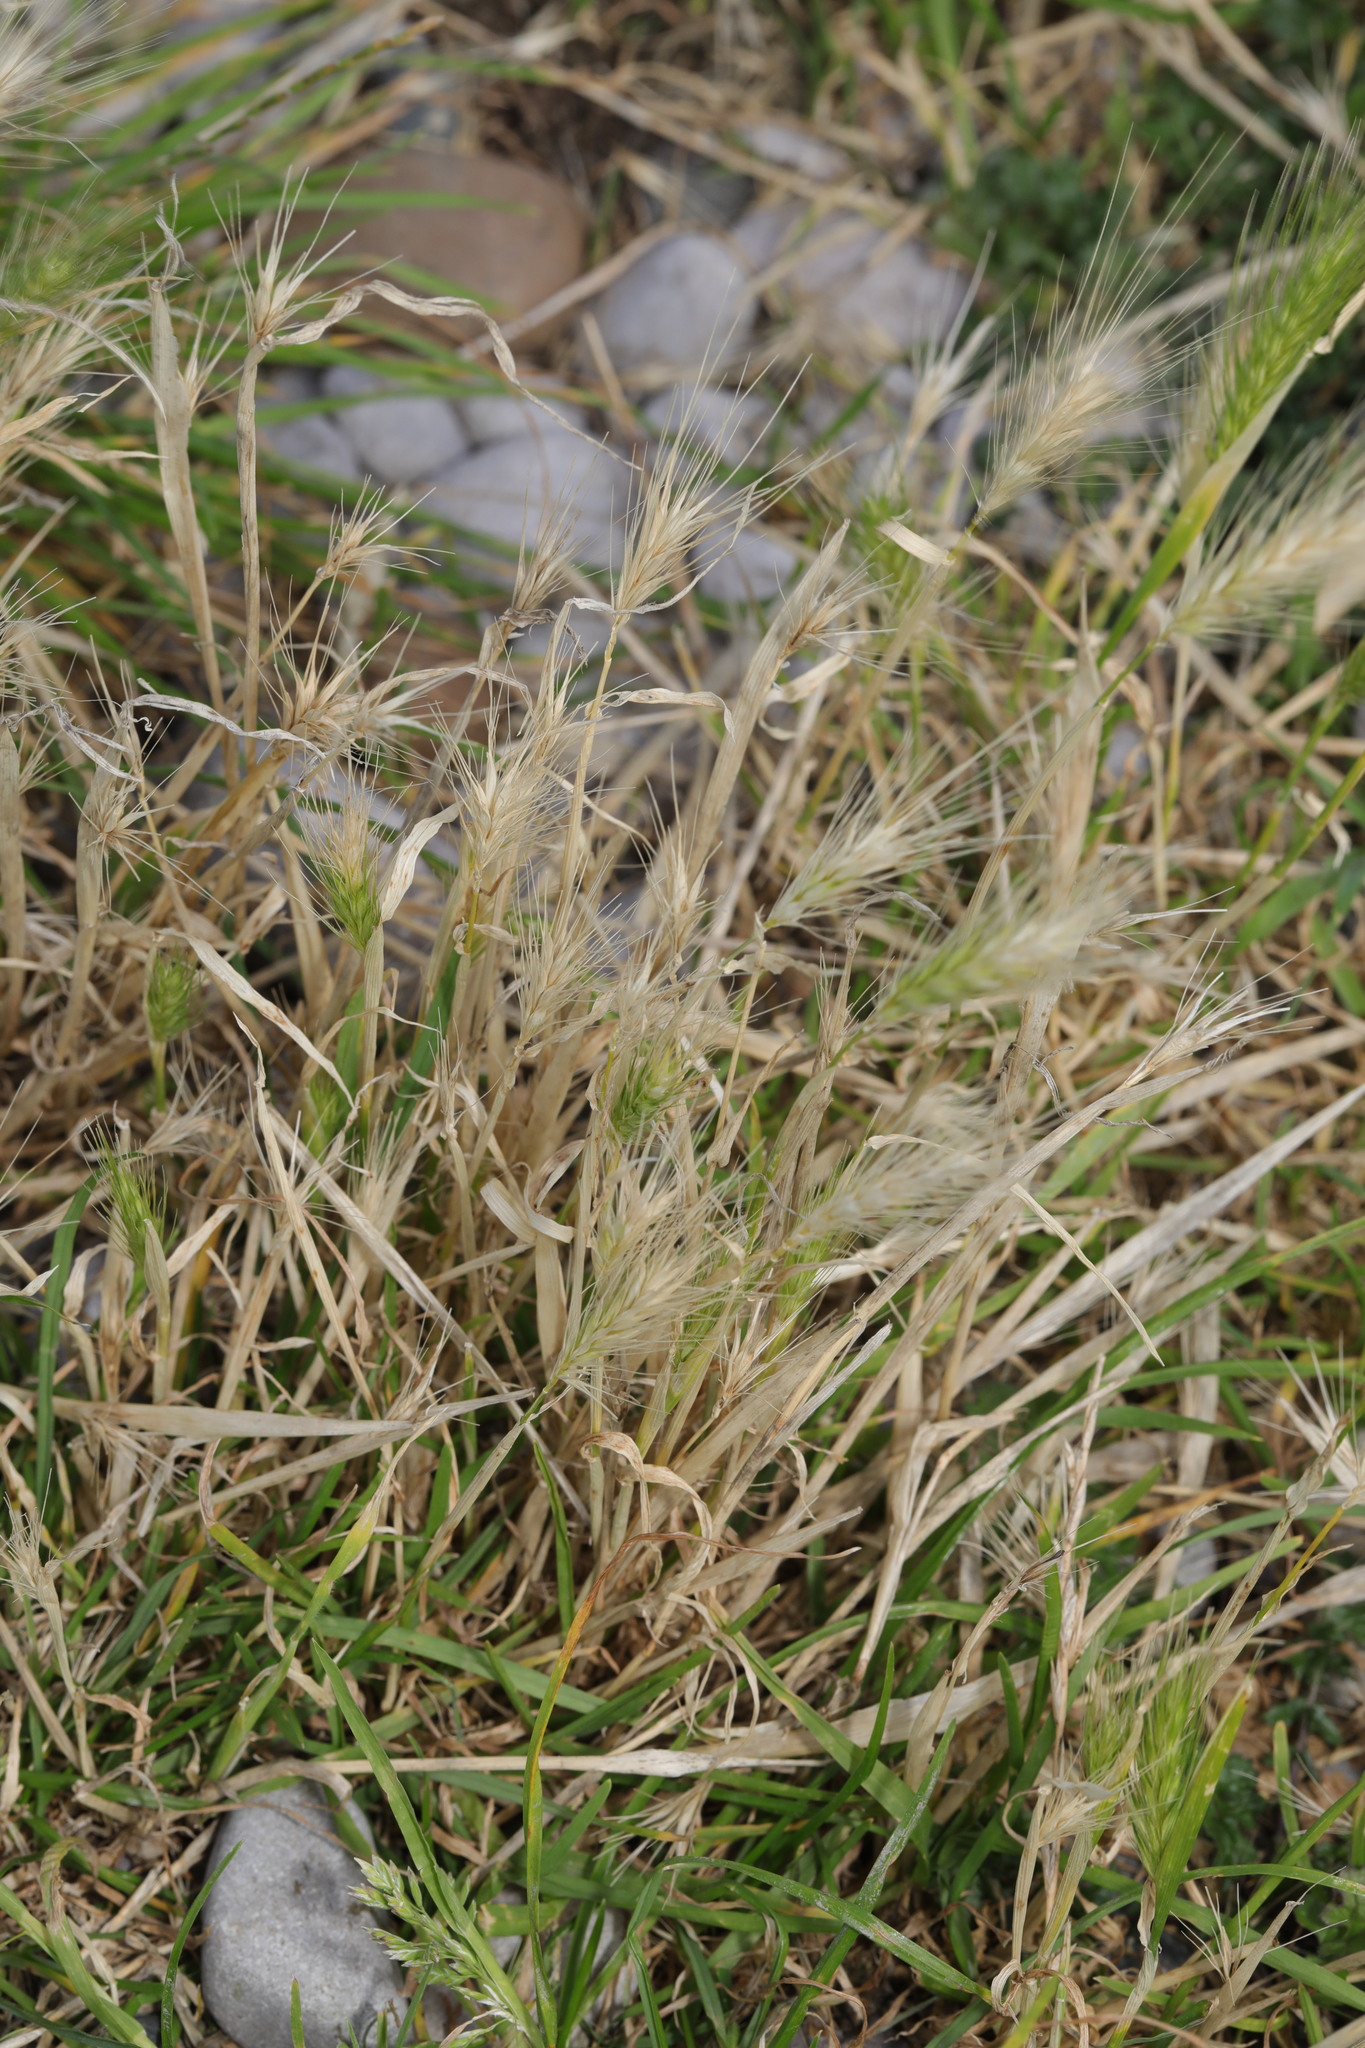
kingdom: Plantae
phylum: Tracheophyta
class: Liliopsida
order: Poales
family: Poaceae
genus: Hordeum
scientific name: Hordeum murinum
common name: Wall barley
